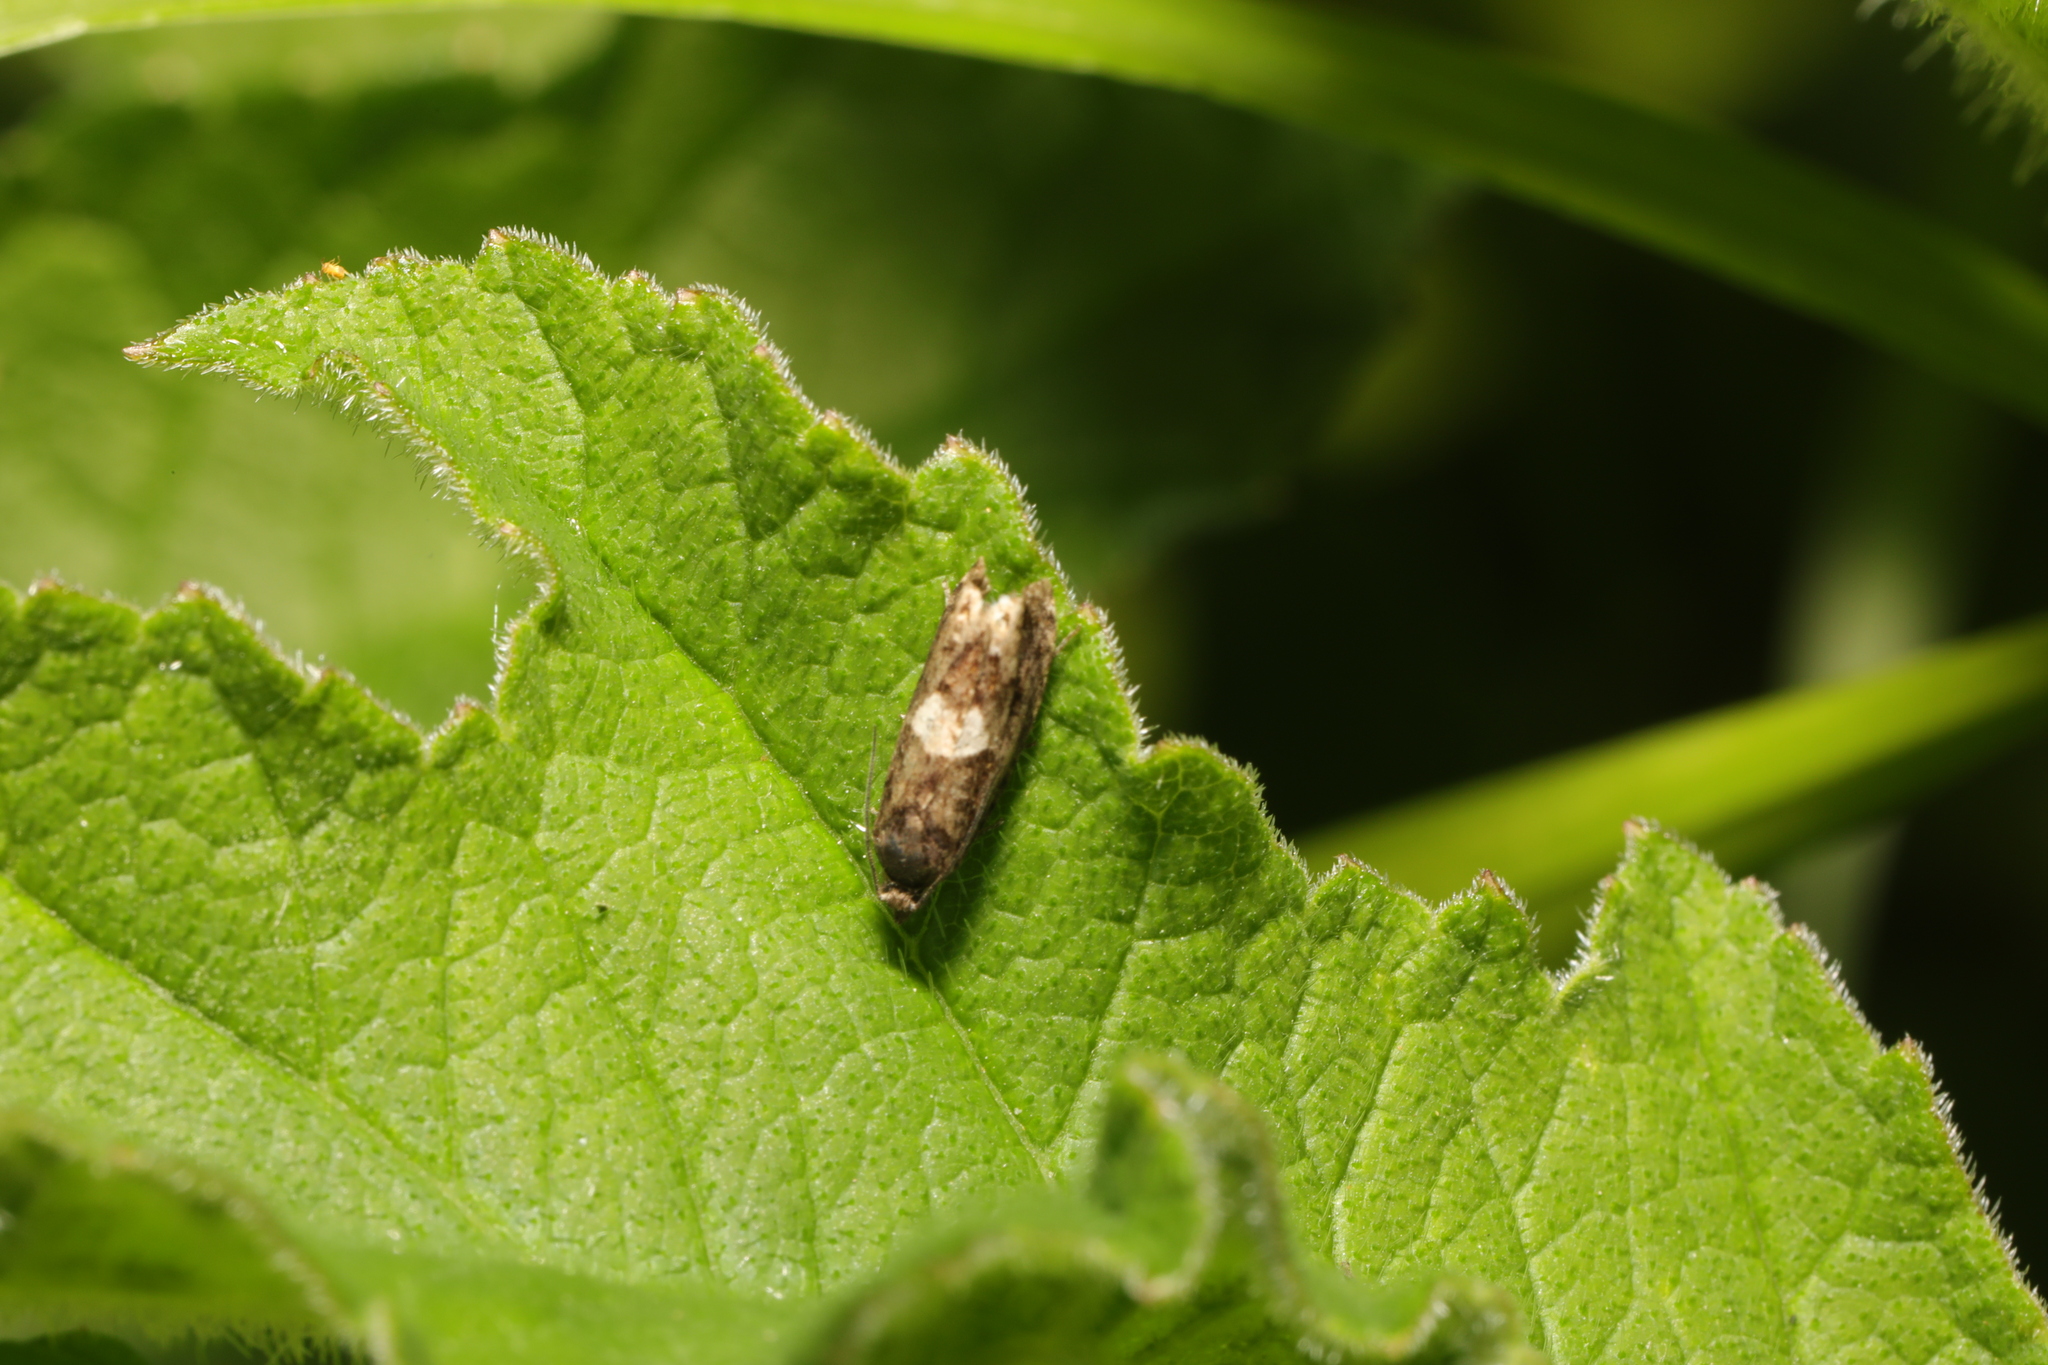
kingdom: Animalia
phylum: Arthropoda
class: Insecta
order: Lepidoptera
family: Tortricidae
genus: Dichrorampha
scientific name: Dichrorampha petiverella
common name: Common drill
